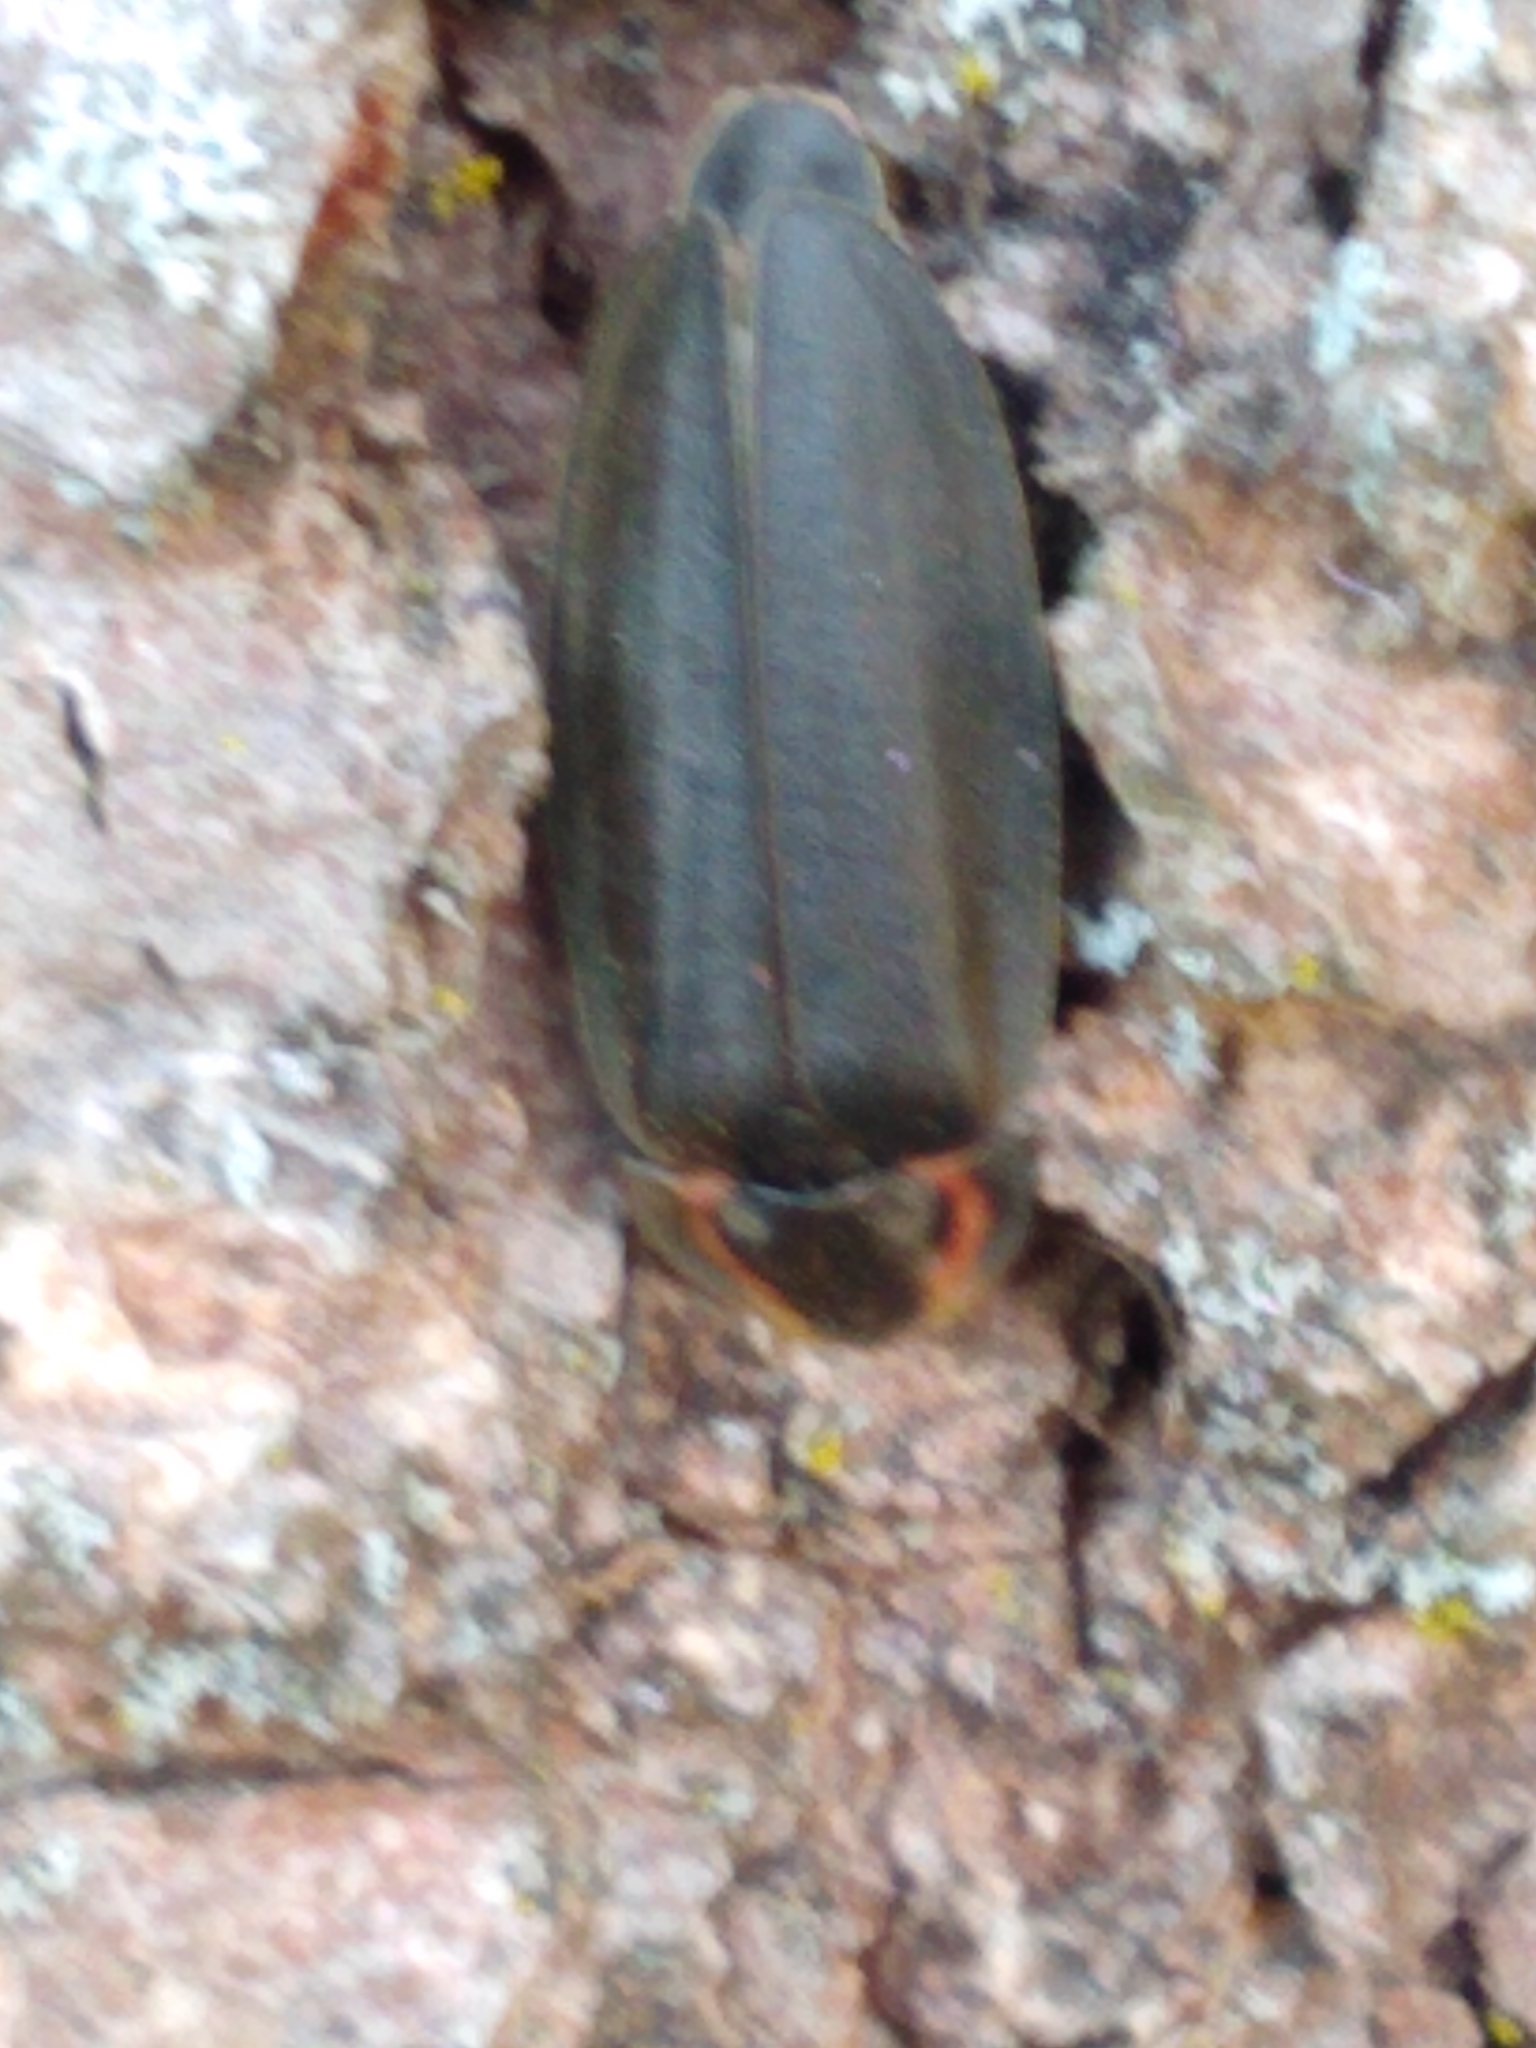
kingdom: Animalia
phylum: Arthropoda
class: Insecta
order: Coleoptera
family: Lampyridae
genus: Photinus
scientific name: Photinus corrusca
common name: Winter firefly
